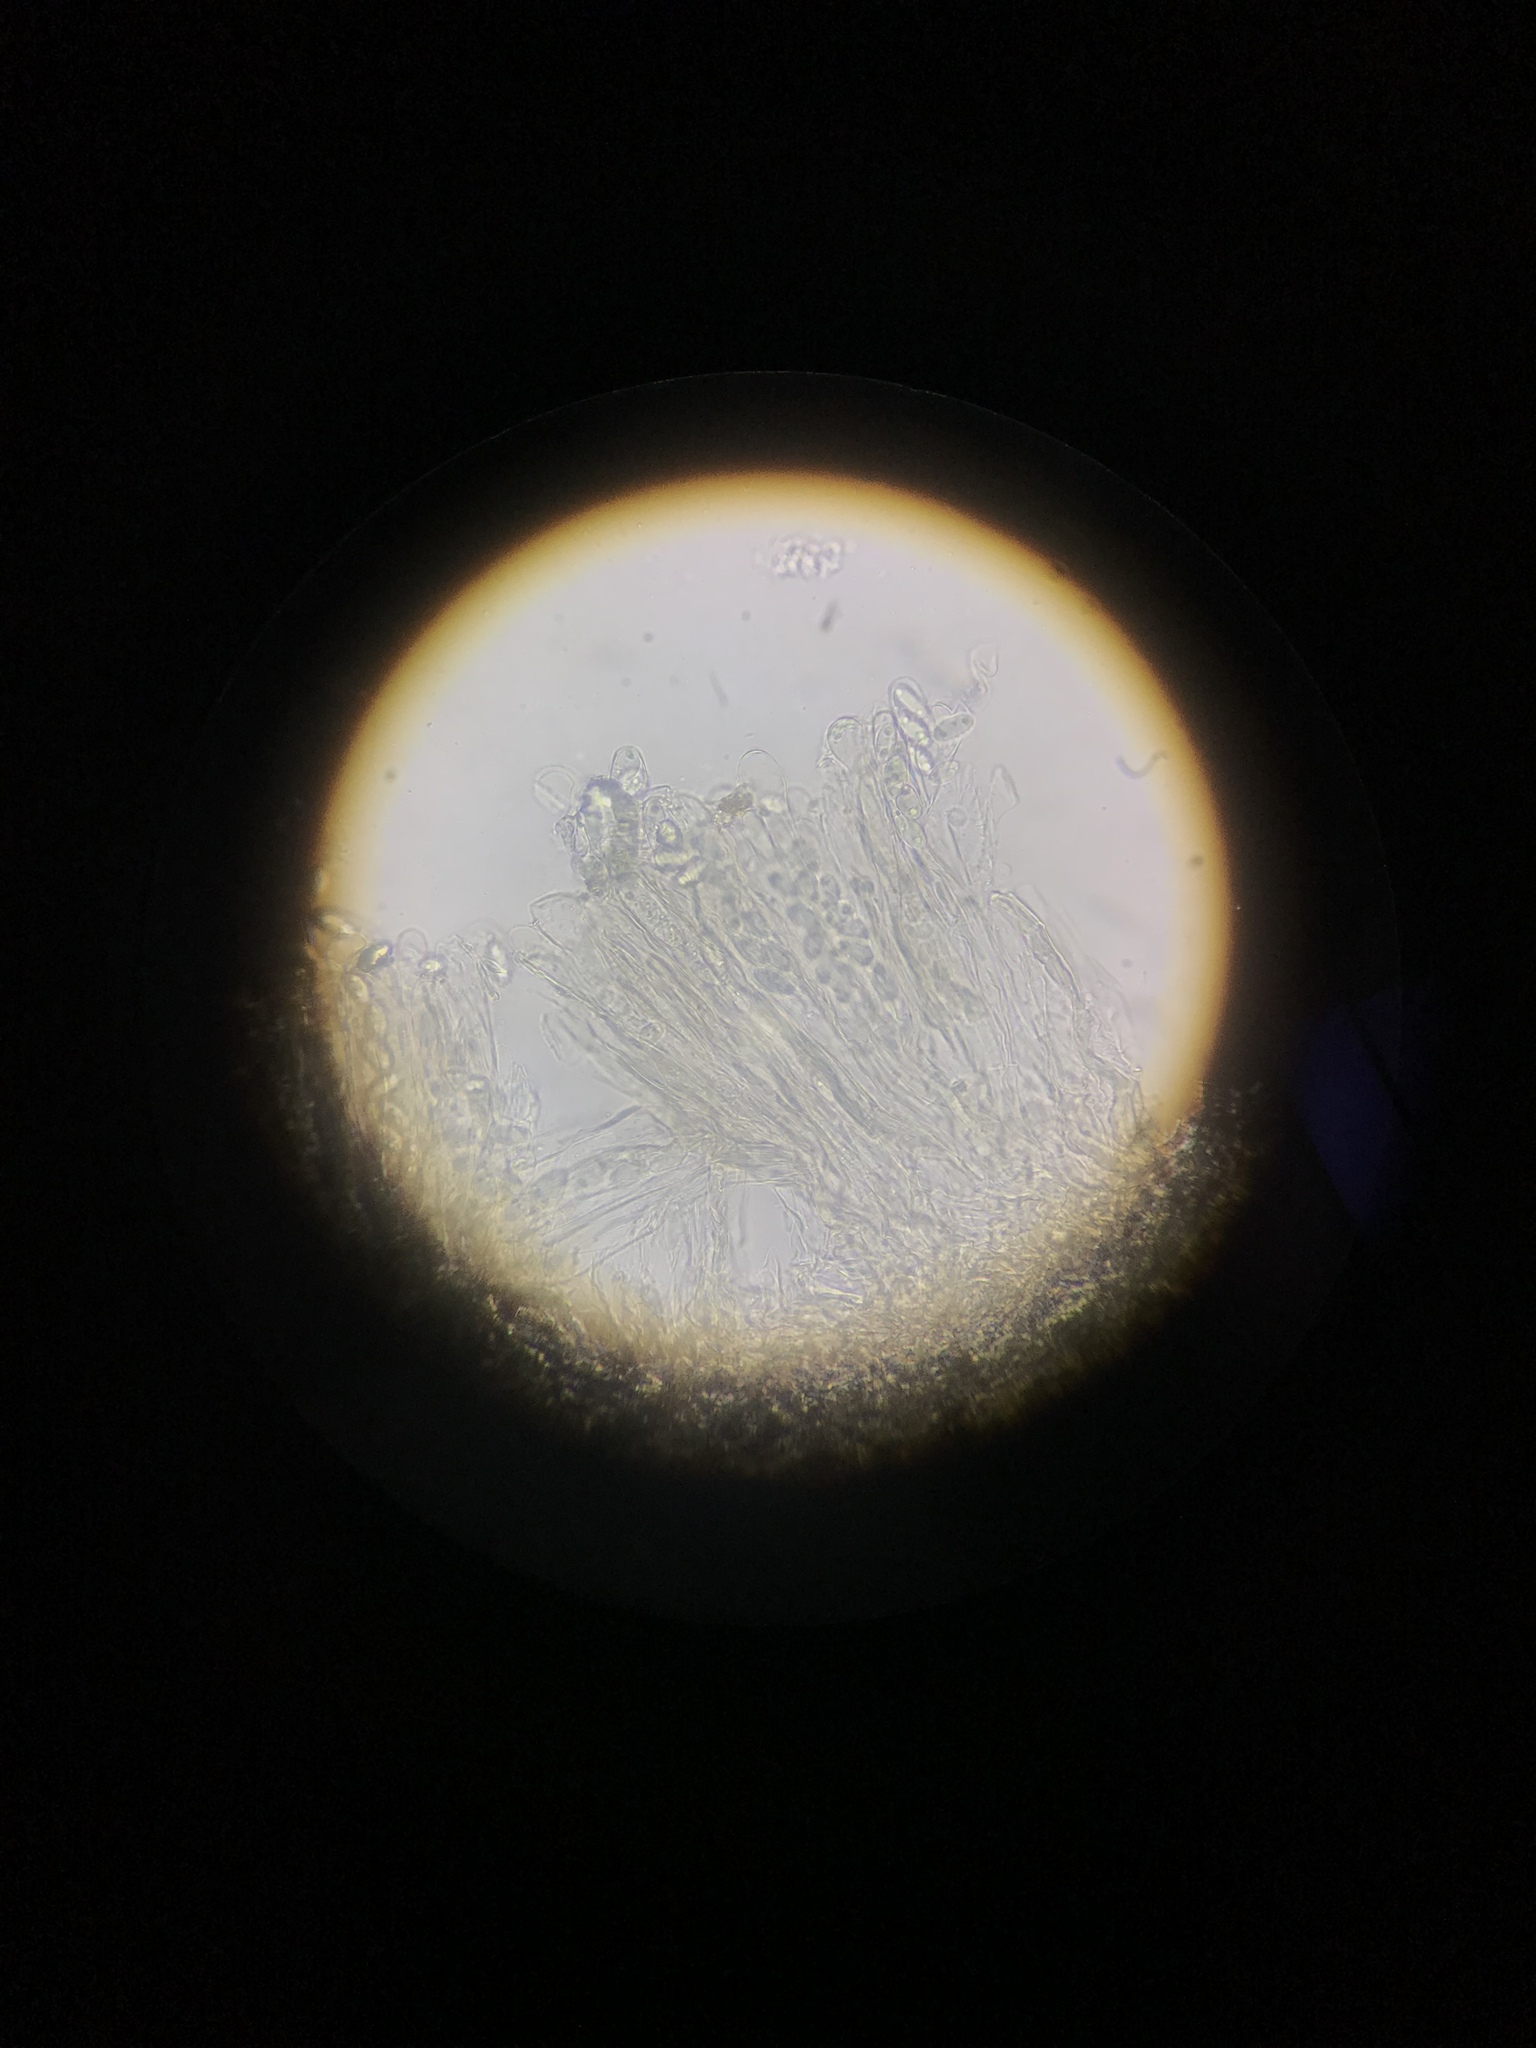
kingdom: Fungi
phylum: Ascomycota
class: Pezizomycetes
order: Pezizales
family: Discinaceae
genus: Gyromitra
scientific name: Gyromitra californica
